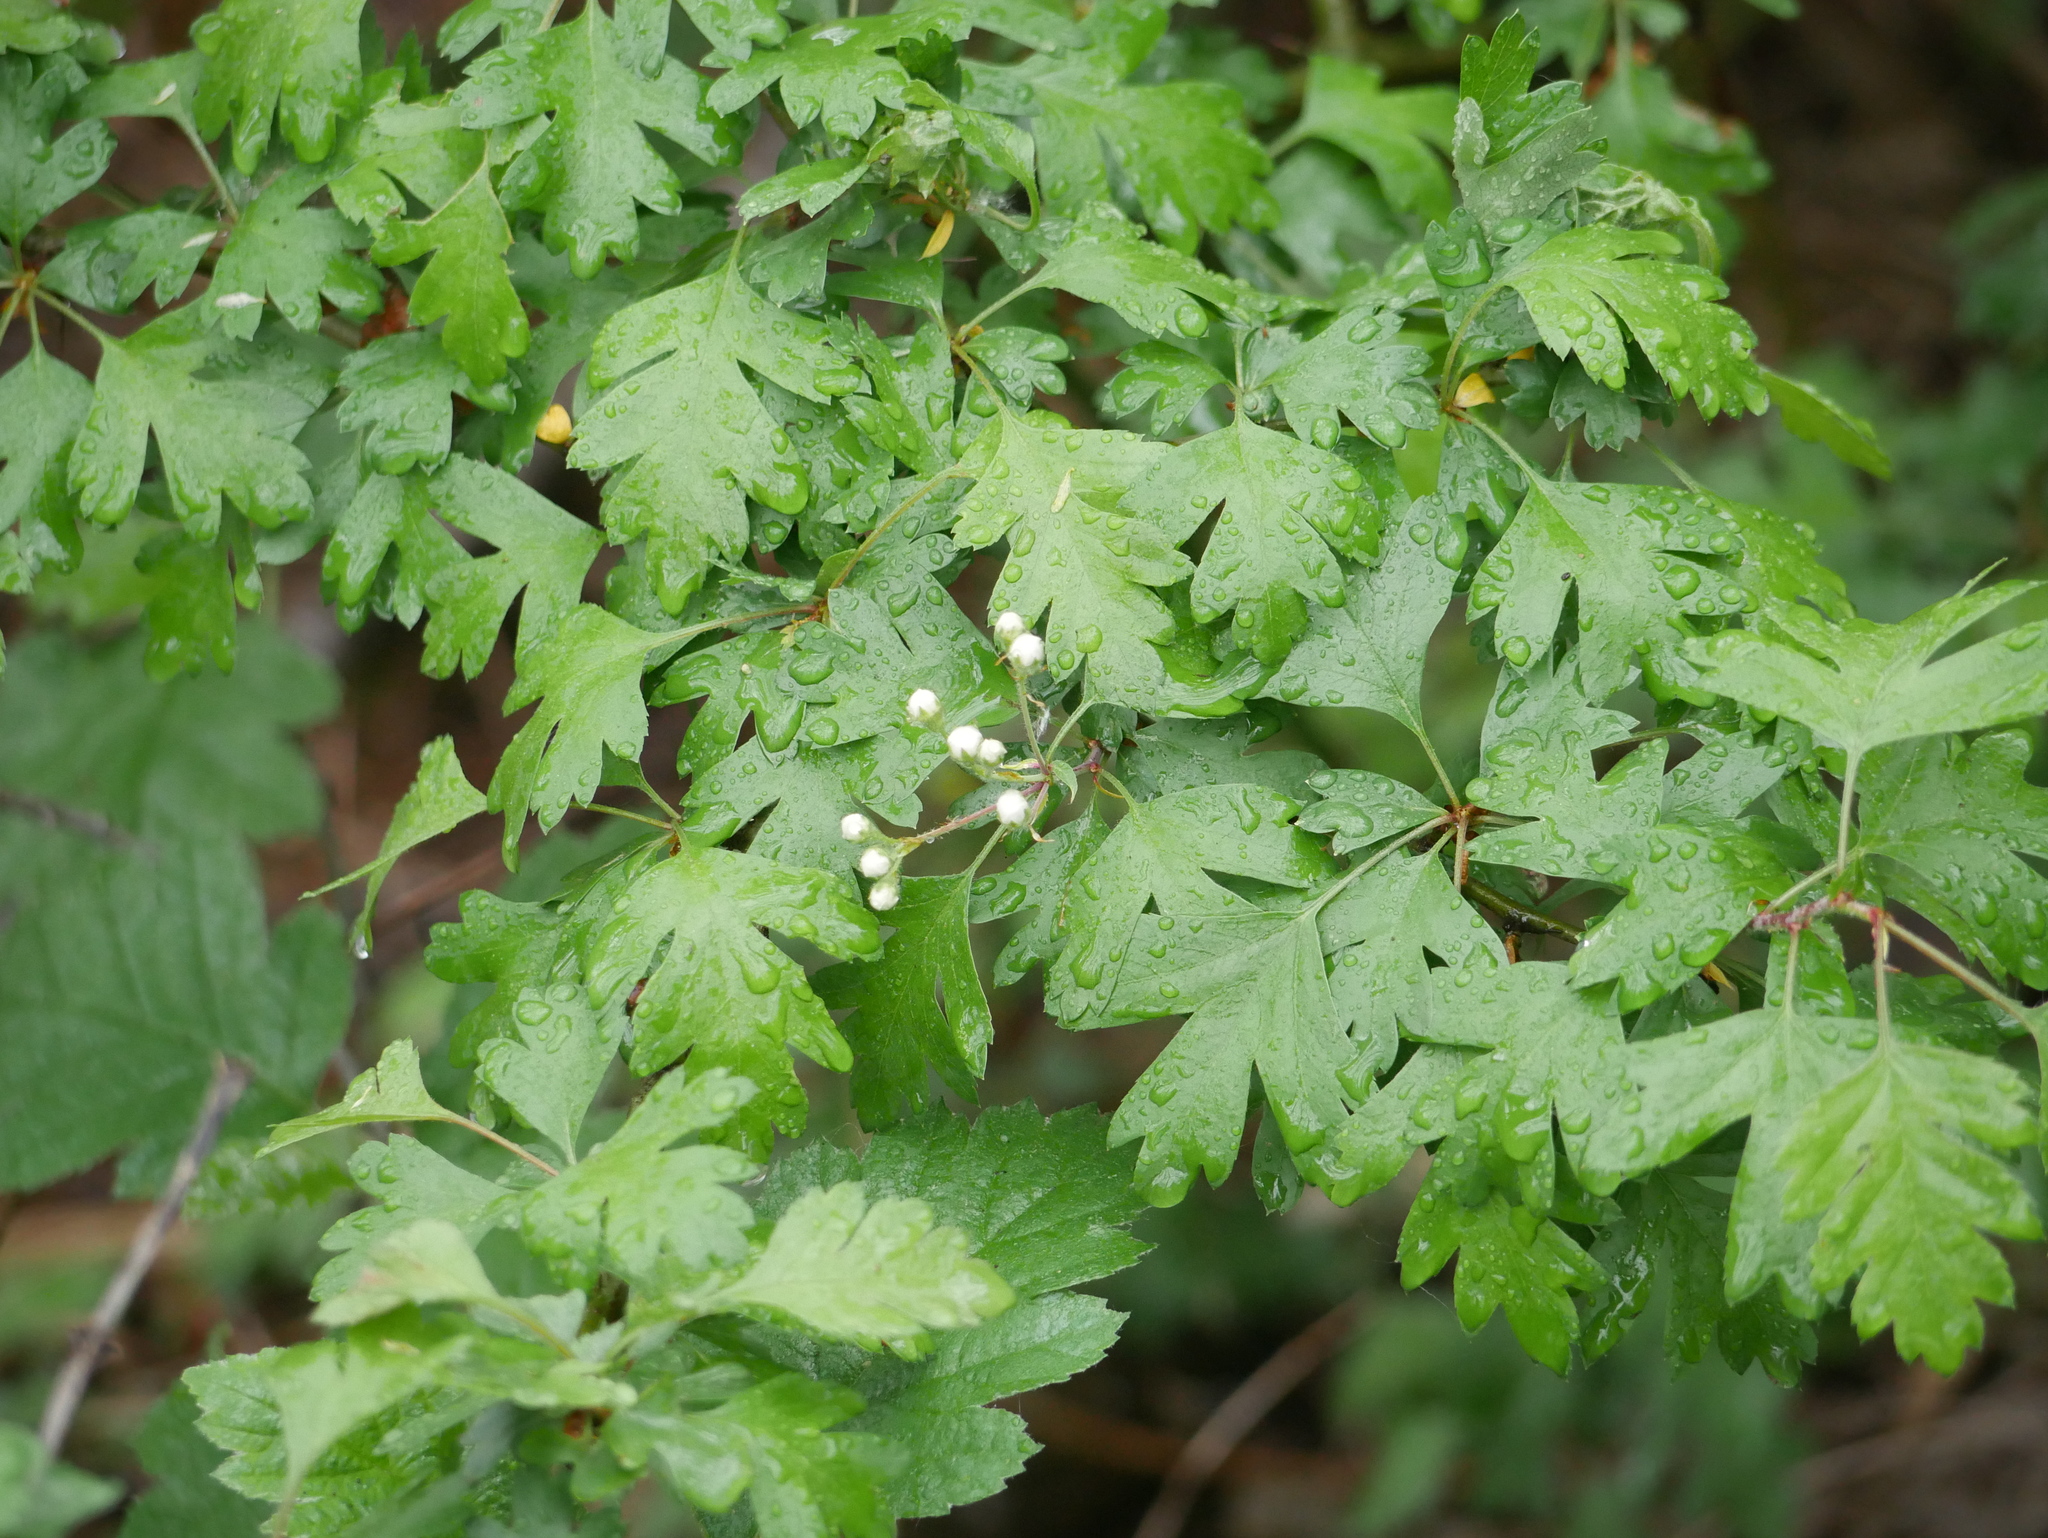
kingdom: Plantae
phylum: Tracheophyta
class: Magnoliopsida
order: Rosales
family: Rosaceae
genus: Crataegus
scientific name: Crataegus monogyna
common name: Hawthorn
